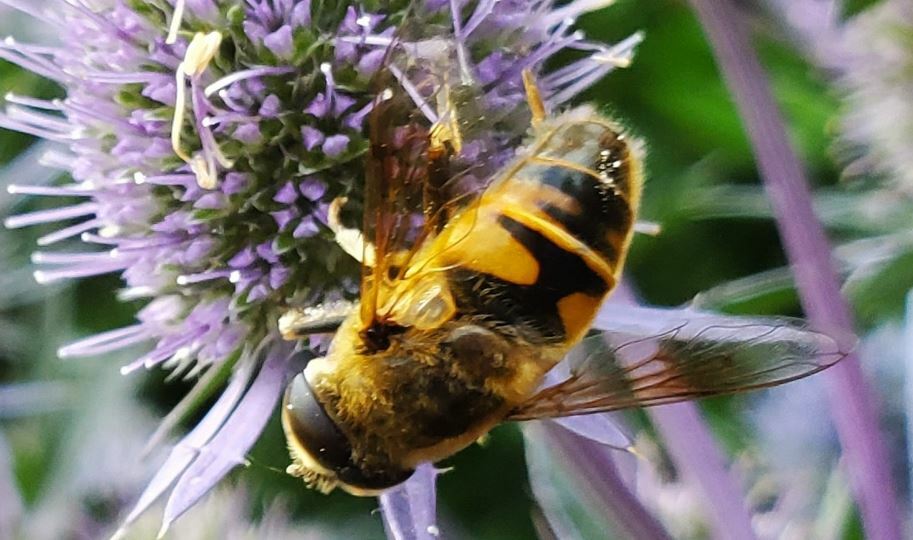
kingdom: Animalia
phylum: Arthropoda
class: Insecta
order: Diptera
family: Syrphidae
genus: Eristalis
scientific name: Eristalis tenax
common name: Drone fly
